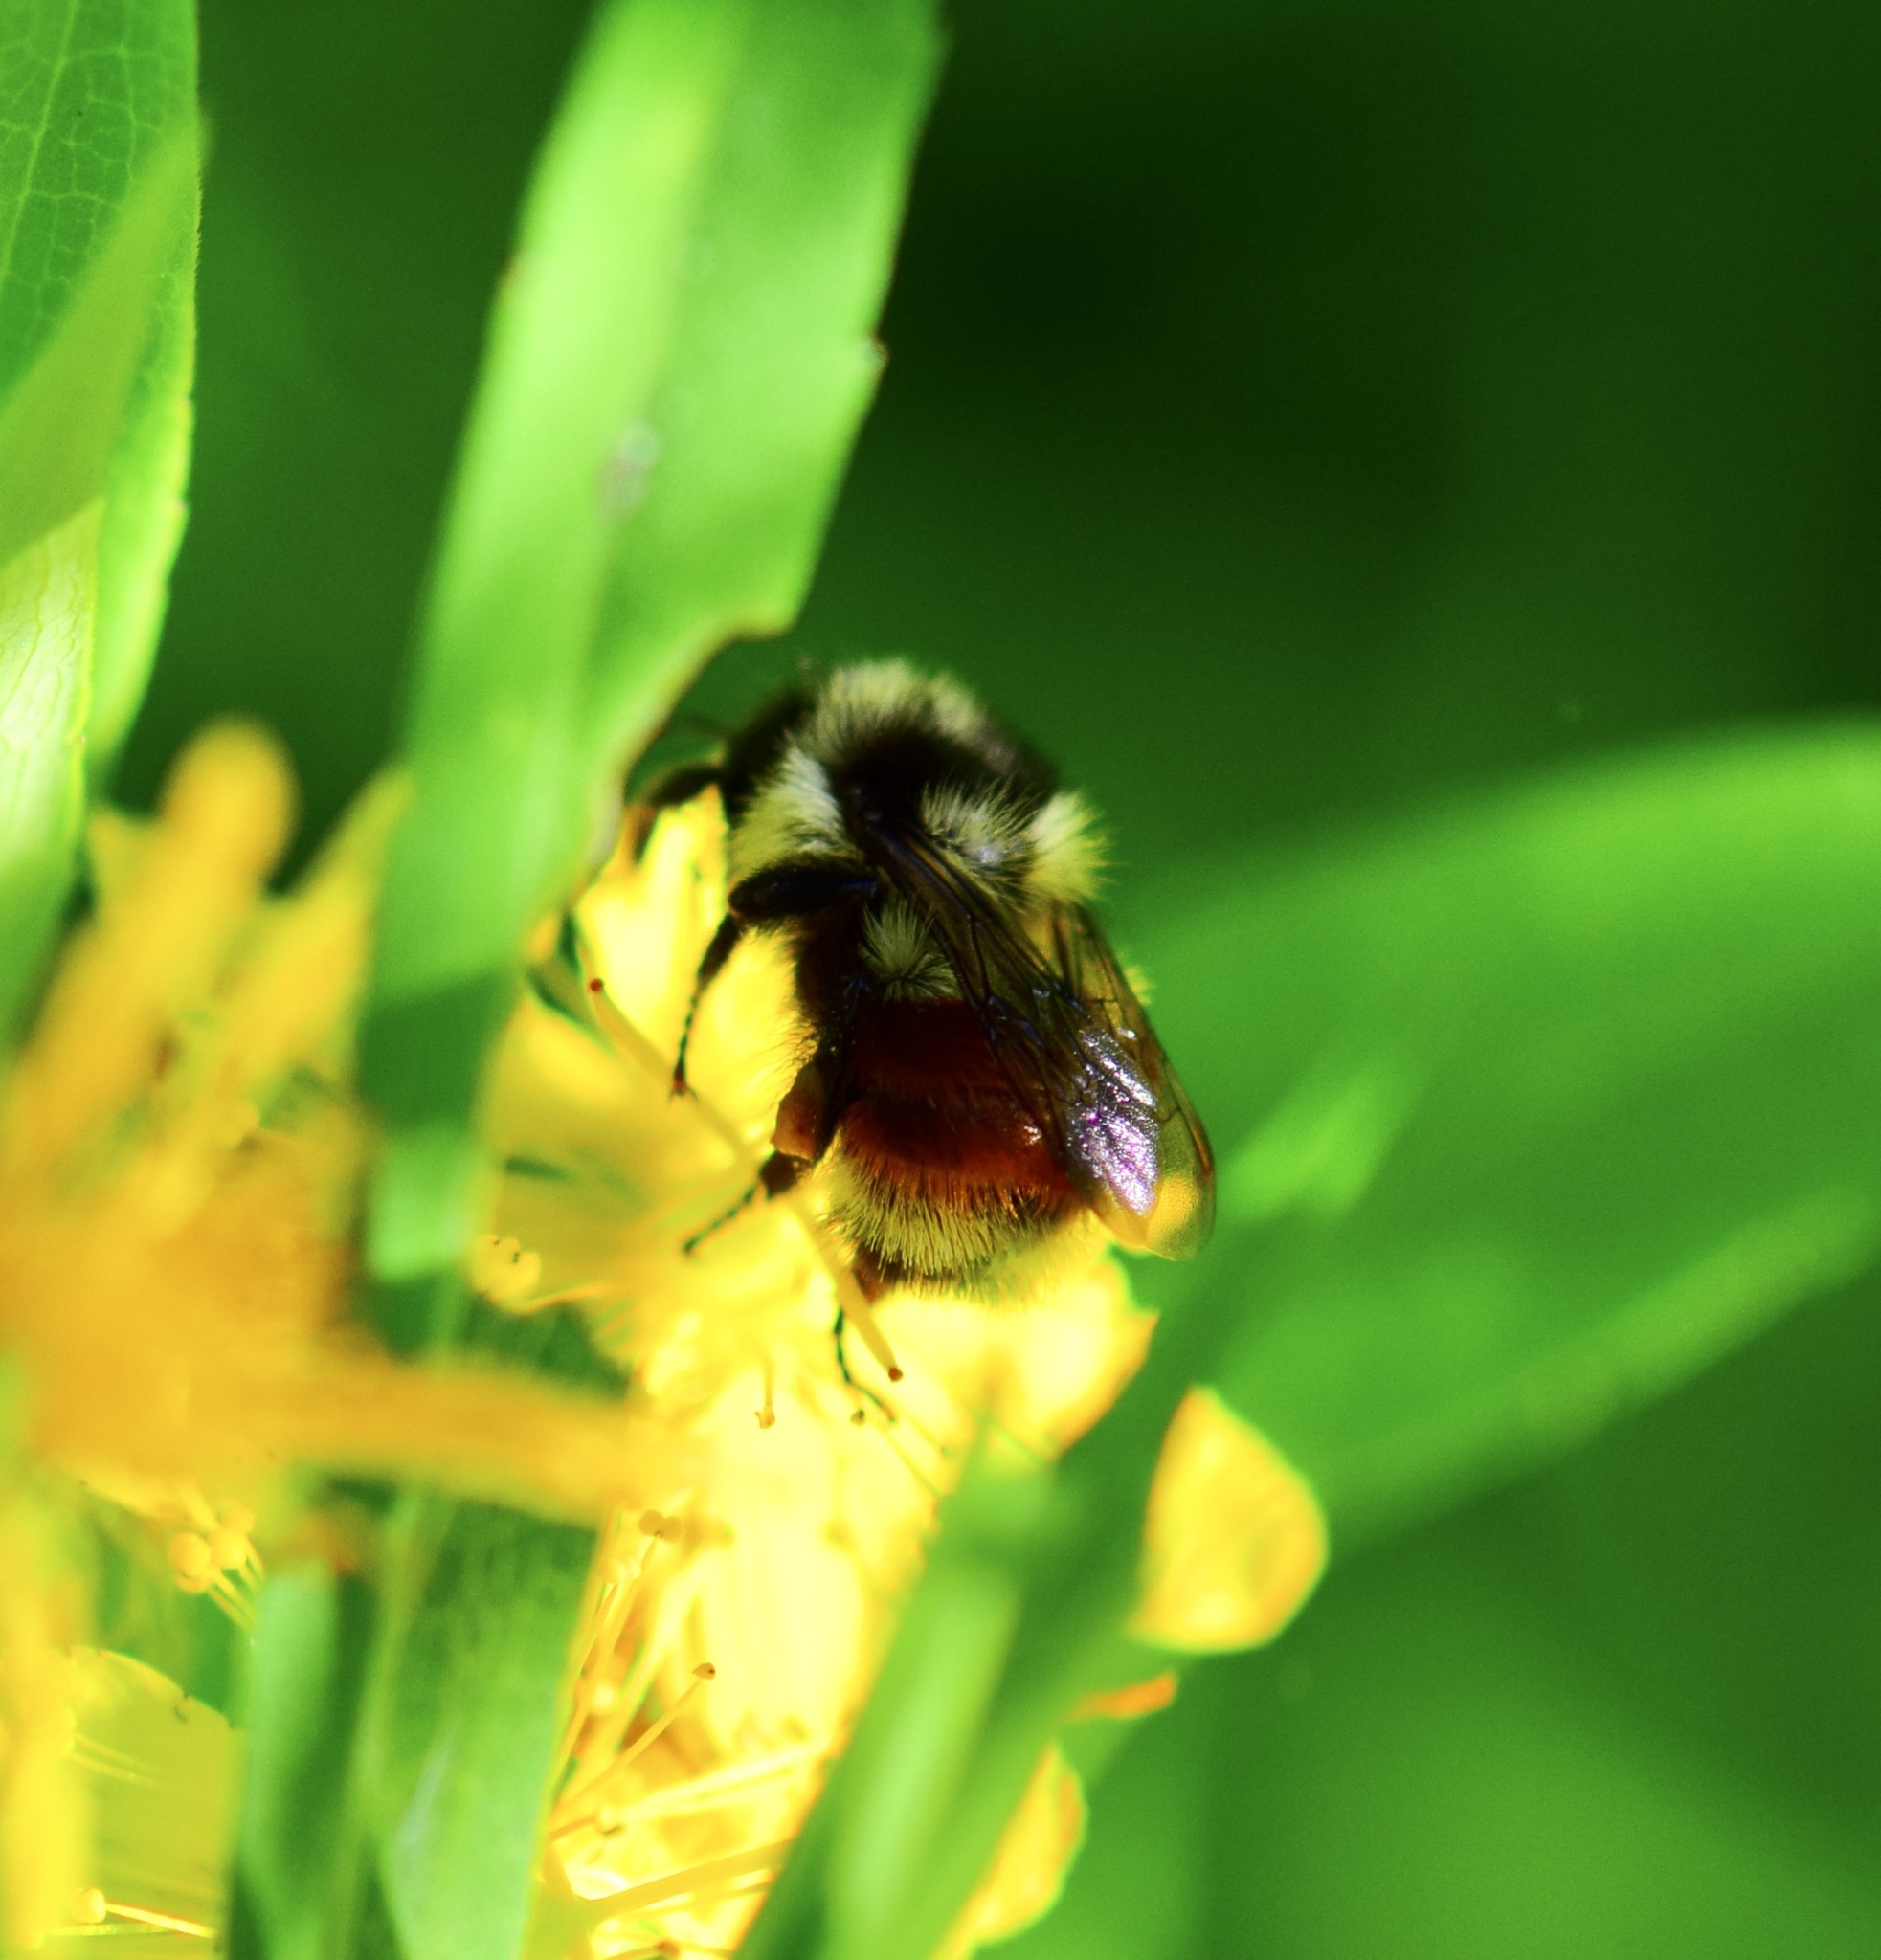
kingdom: Animalia
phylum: Arthropoda
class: Insecta
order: Hymenoptera
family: Apidae
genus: Bombus
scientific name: Bombus ternarius
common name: Tri-colored bumble bee
